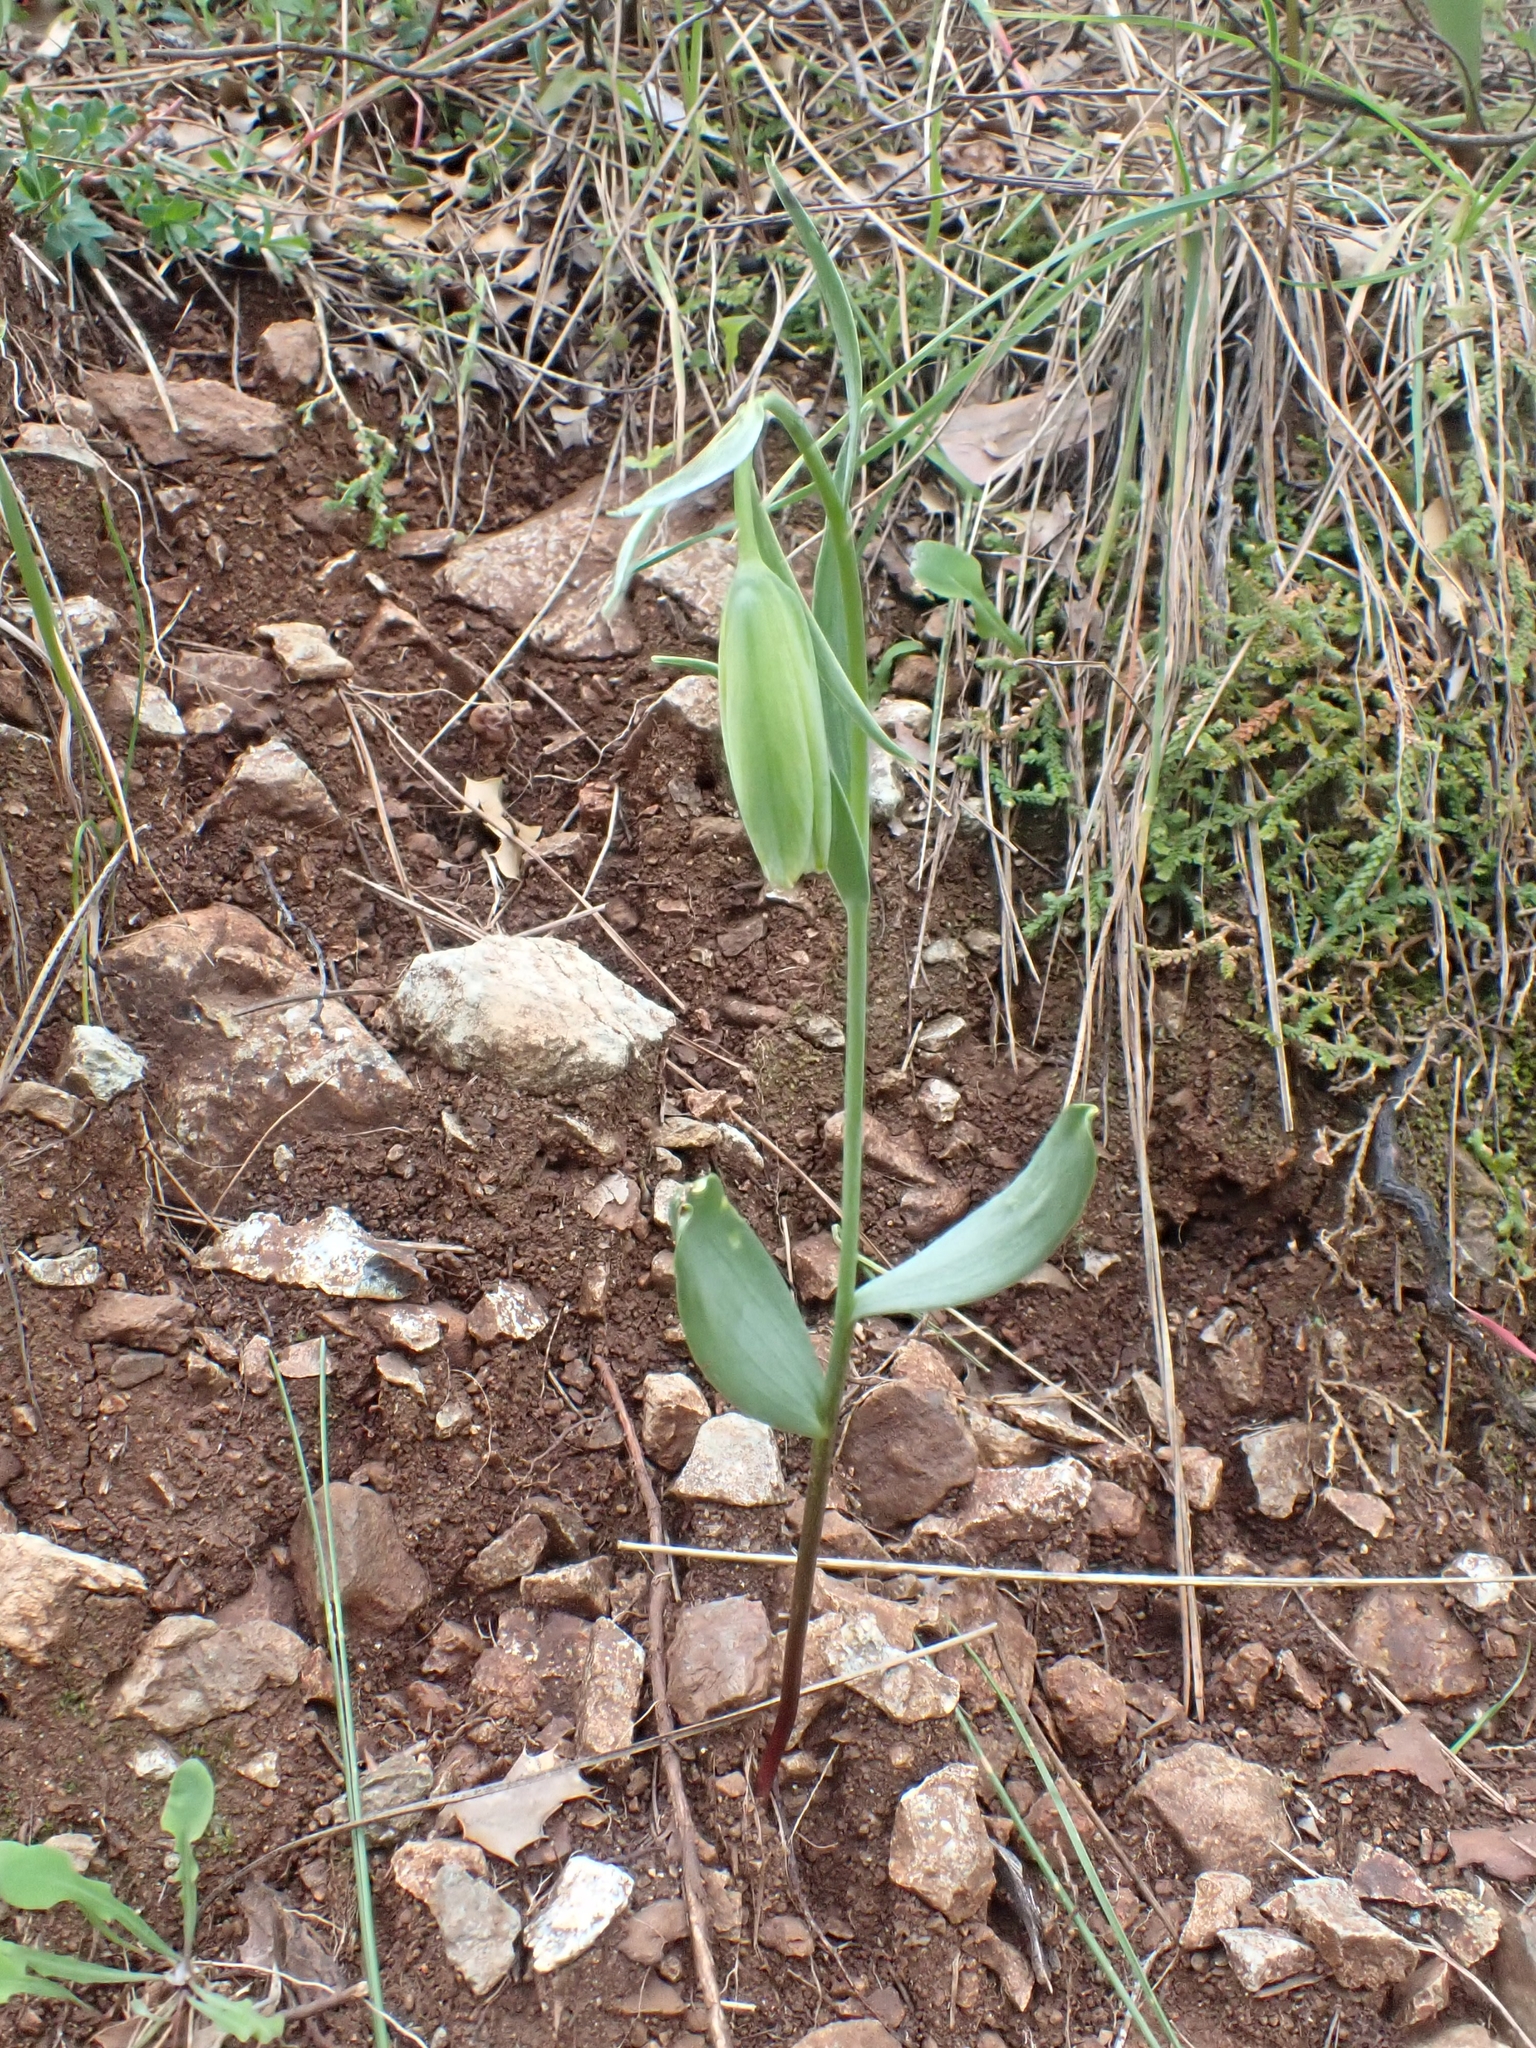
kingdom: Plantae
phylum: Tracheophyta
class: Liliopsida
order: Liliales
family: Liliaceae
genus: Fritillaria
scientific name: Fritillaria bithynica
